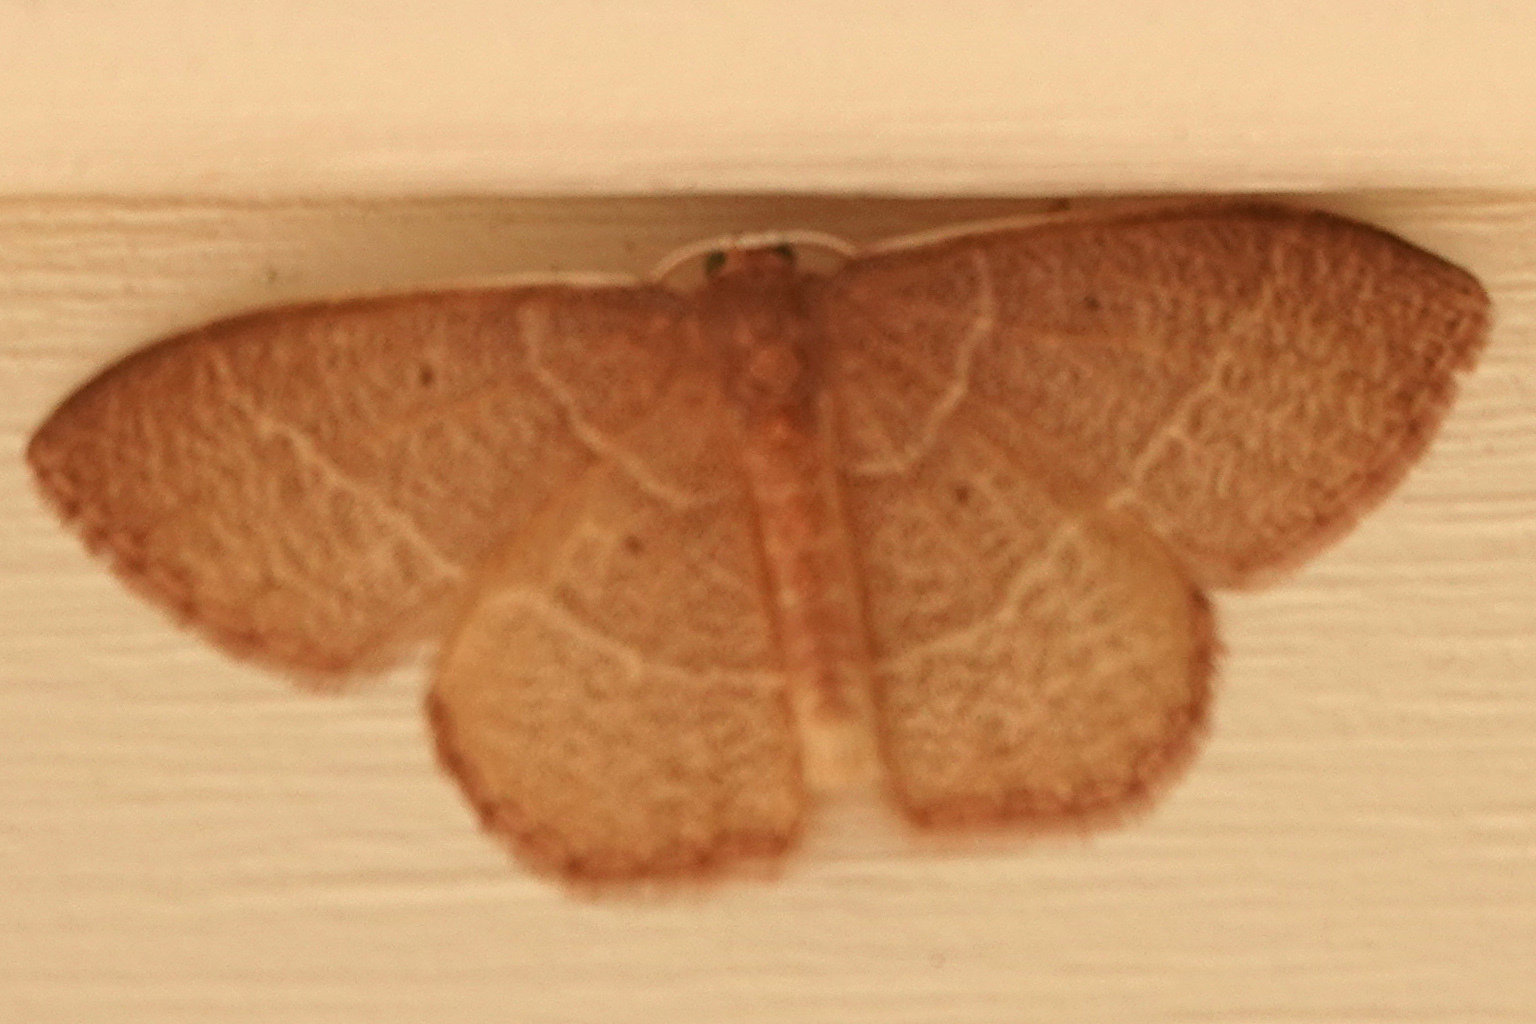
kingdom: Animalia
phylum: Arthropoda
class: Insecta
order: Lepidoptera
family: Geometridae
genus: Nemoria
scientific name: Nemoria bistriaria
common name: Red-fringed emerald
